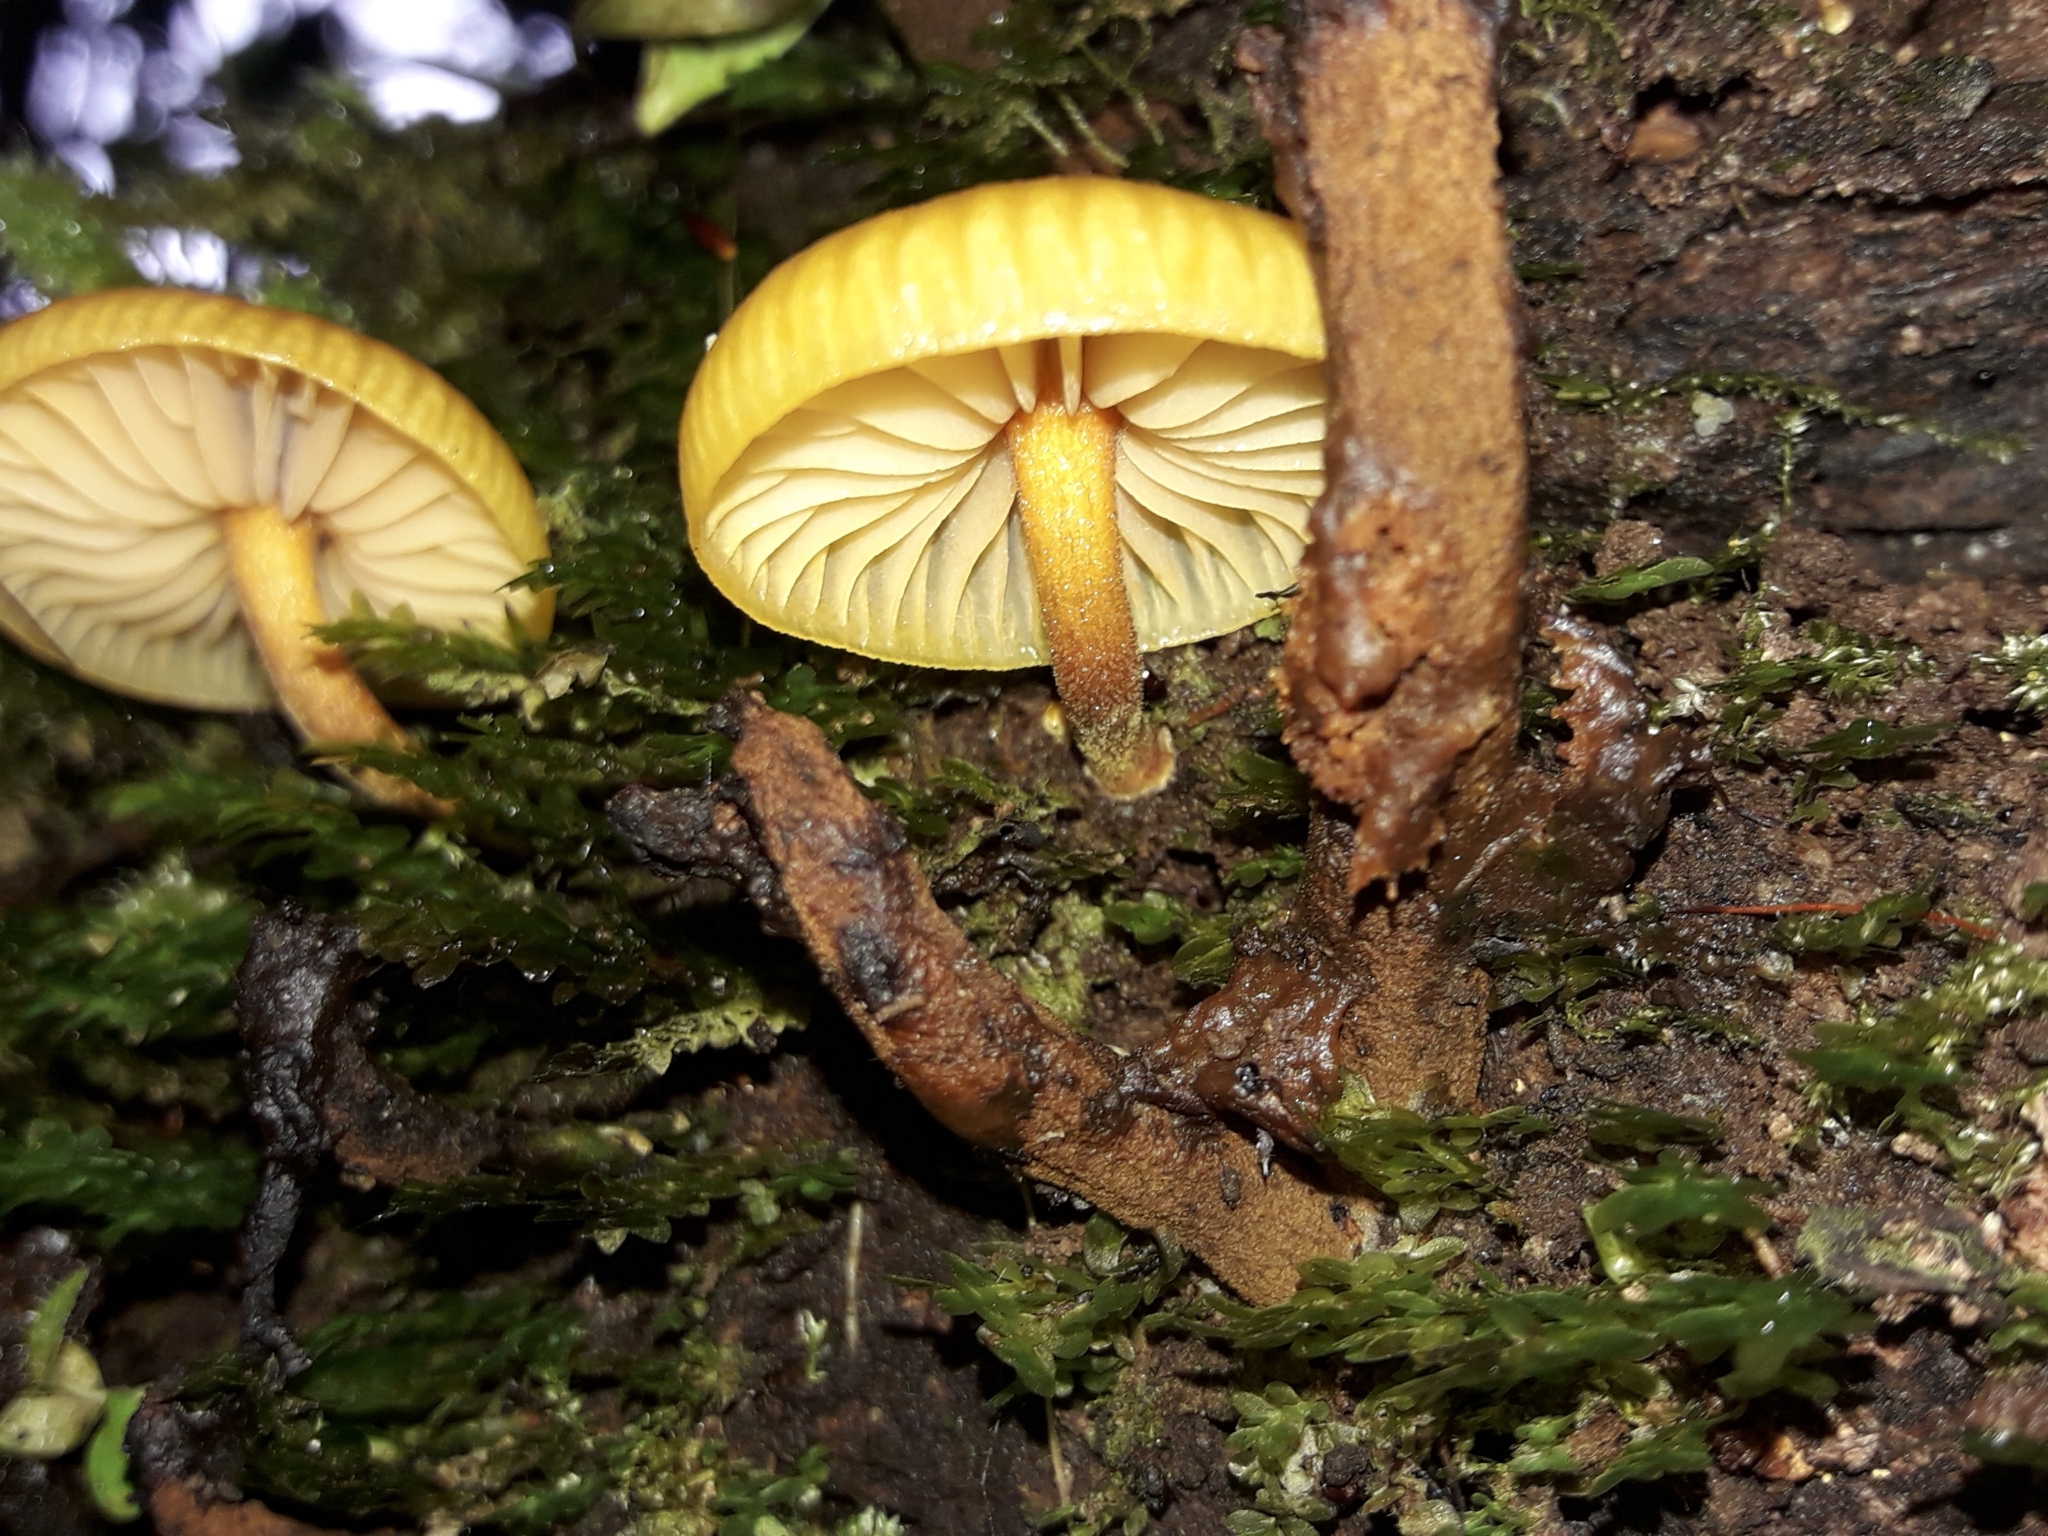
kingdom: Fungi
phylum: Basidiomycota
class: Agaricomycetes
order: Agaricales
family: Mycenaceae
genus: Heimiomyces
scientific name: Heimiomyces velutipes
